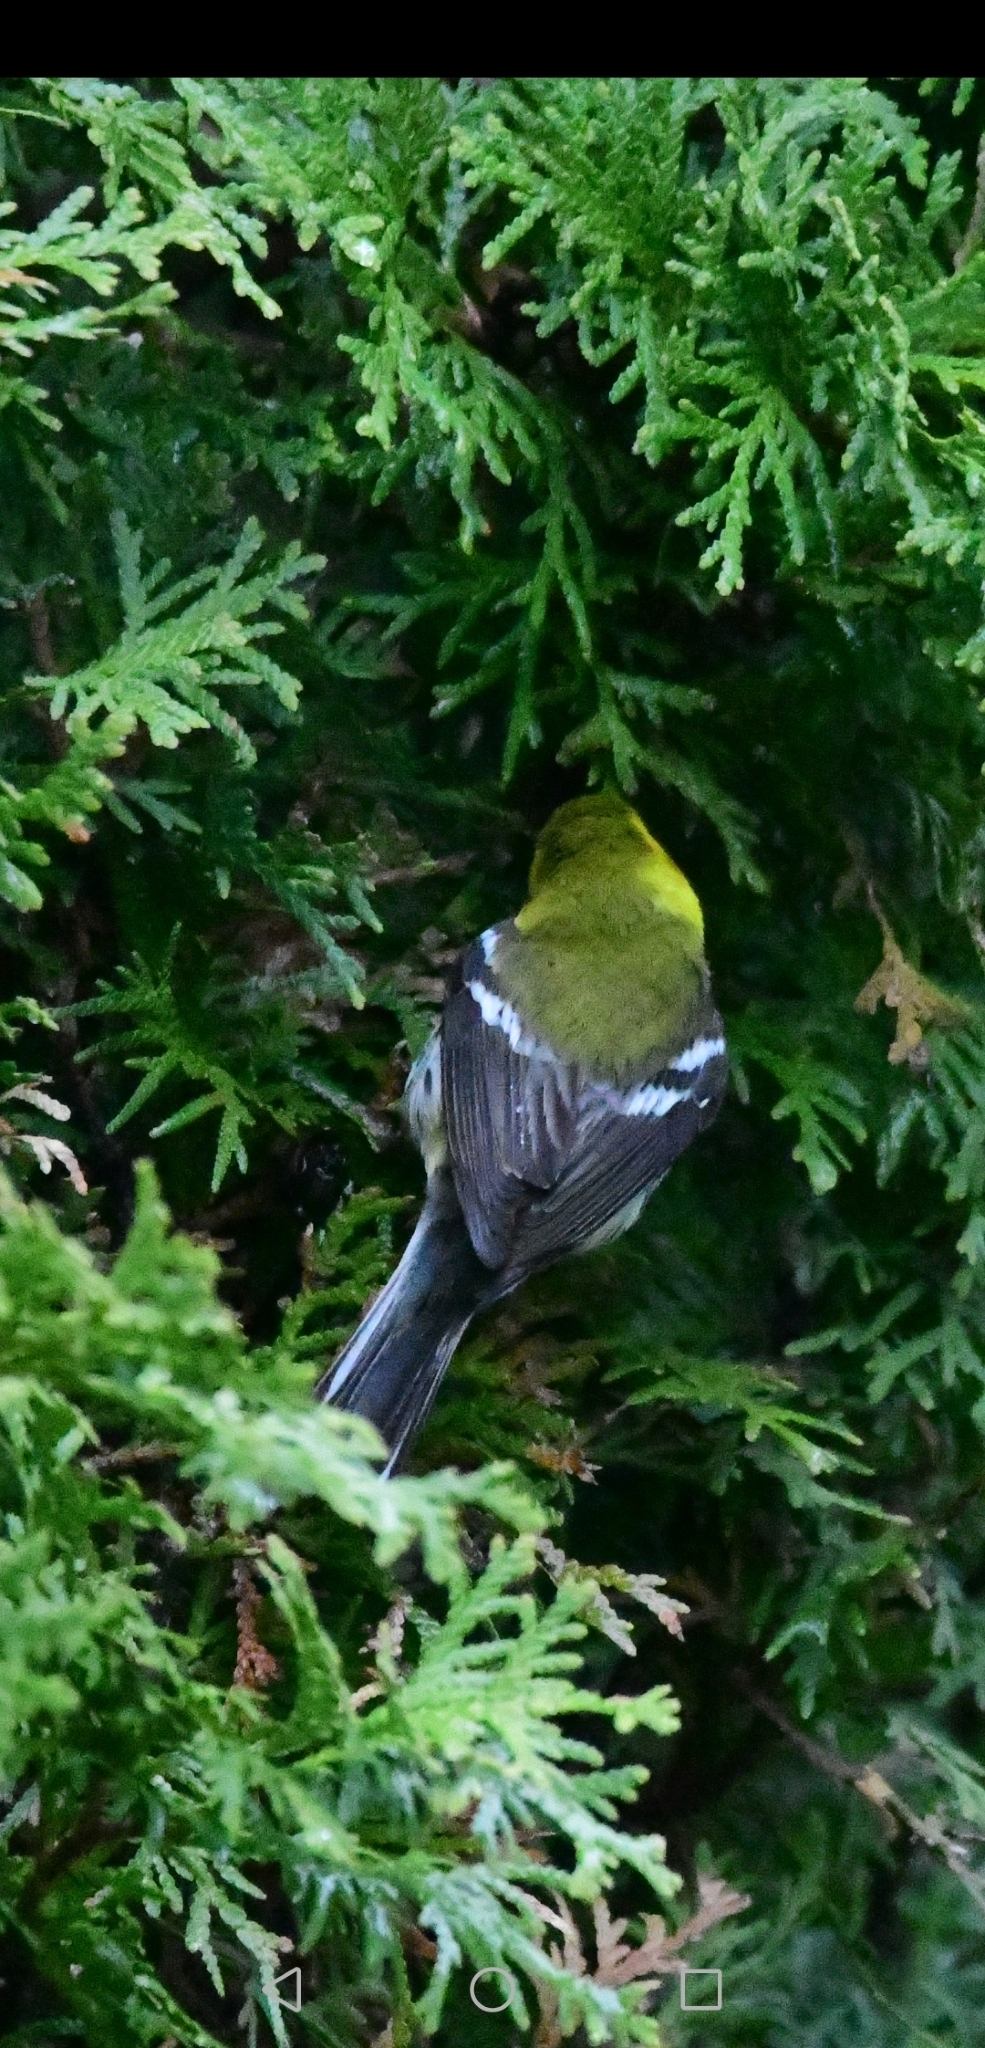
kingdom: Animalia
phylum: Chordata
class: Aves
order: Passeriformes
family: Parulidae
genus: Setophaga
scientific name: Setophaga virens
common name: Black-throated green warbler
